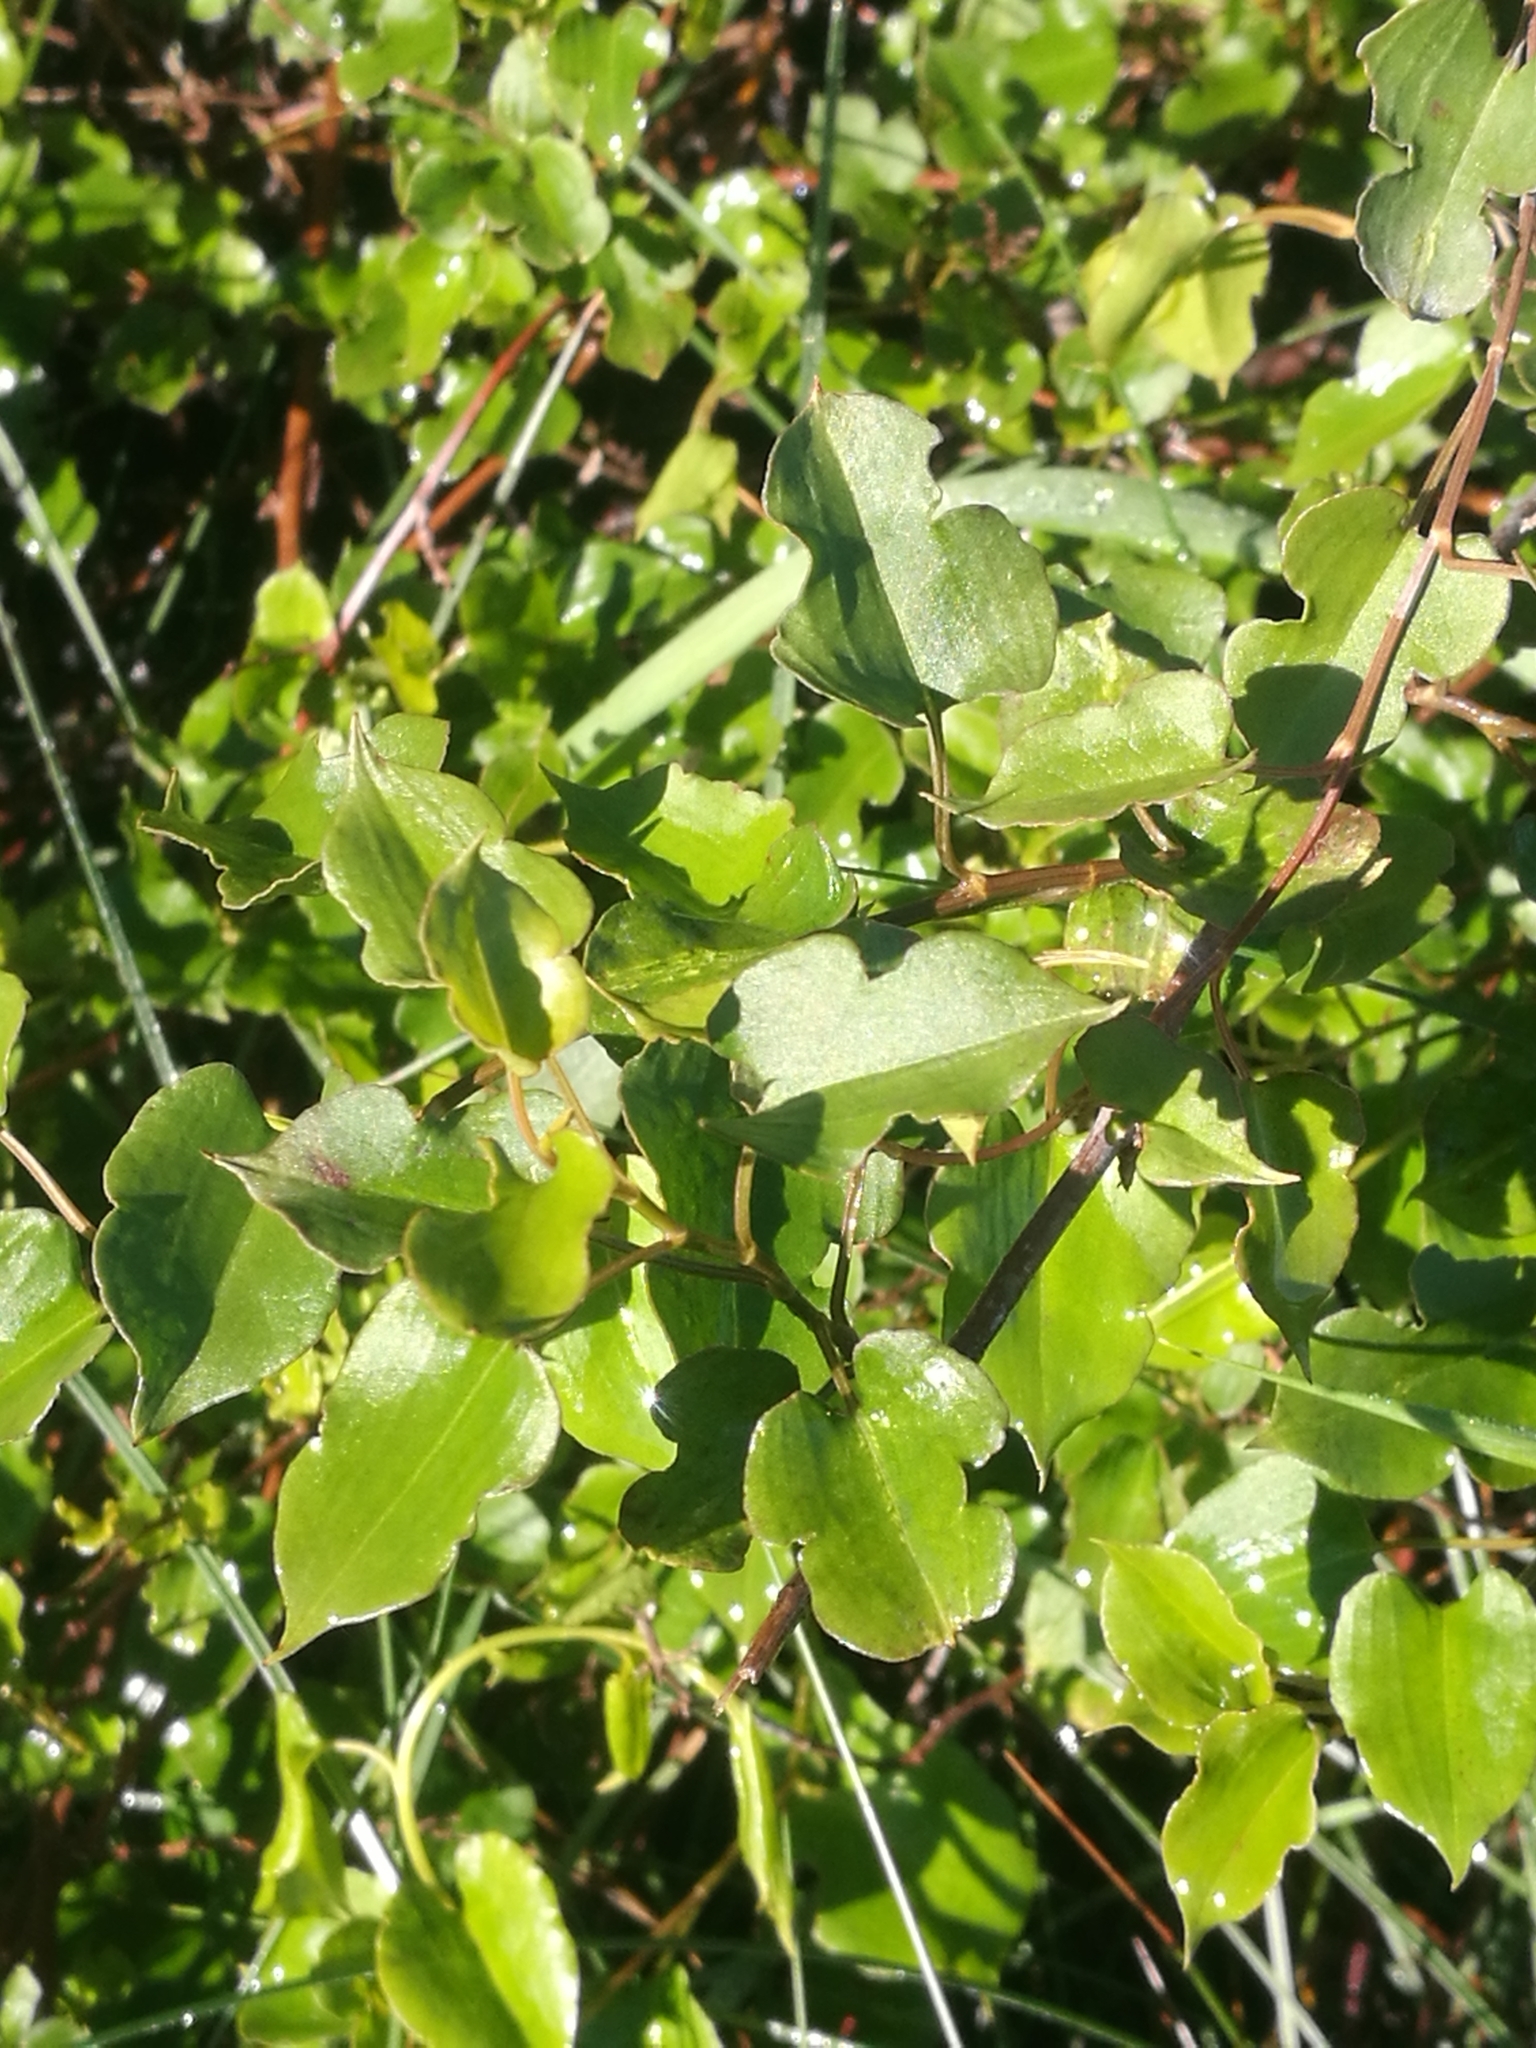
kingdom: Plantae
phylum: Tracheophyta
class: Magnoliopsida
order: Caryophyllales
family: Polygonaceae
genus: Muehlenbeckia
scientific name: Muehlenbeckia australis
